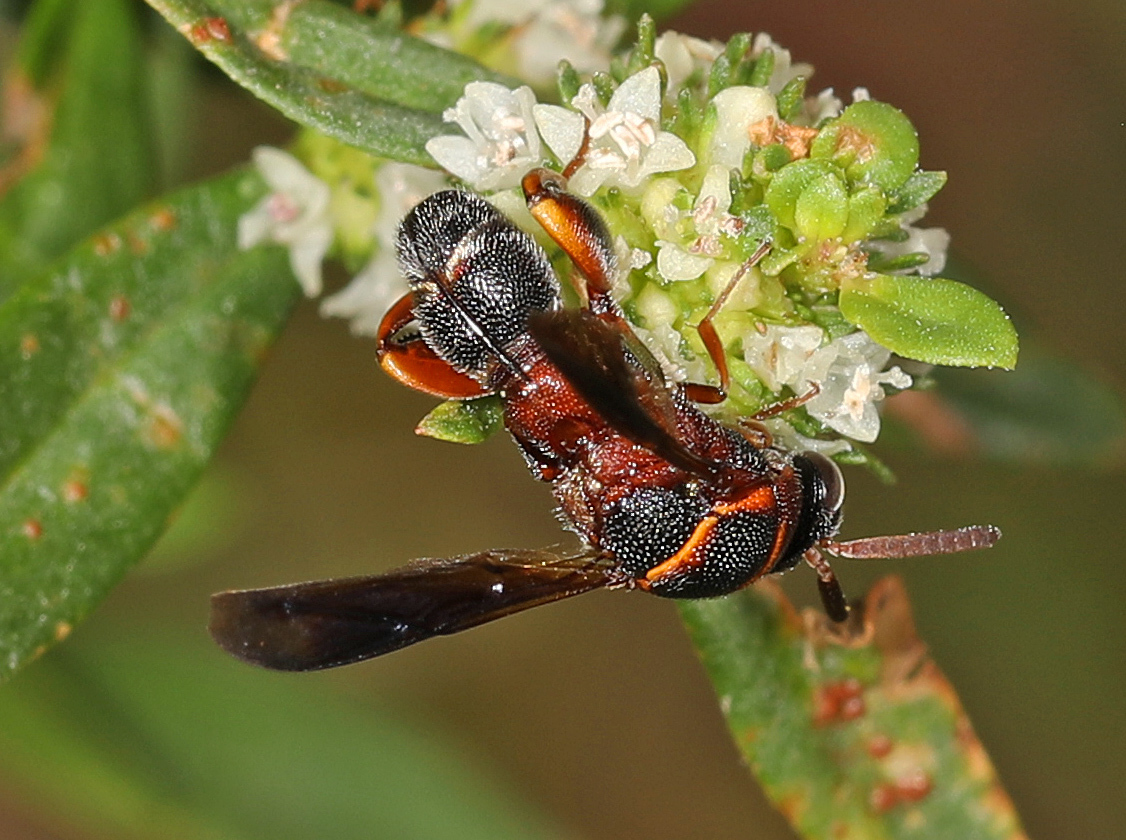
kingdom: Animalia
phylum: Arthropoda
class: Insecta
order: Hymenoptera
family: Leucospidae
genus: Leucospis
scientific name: Leucospis robertsoni
